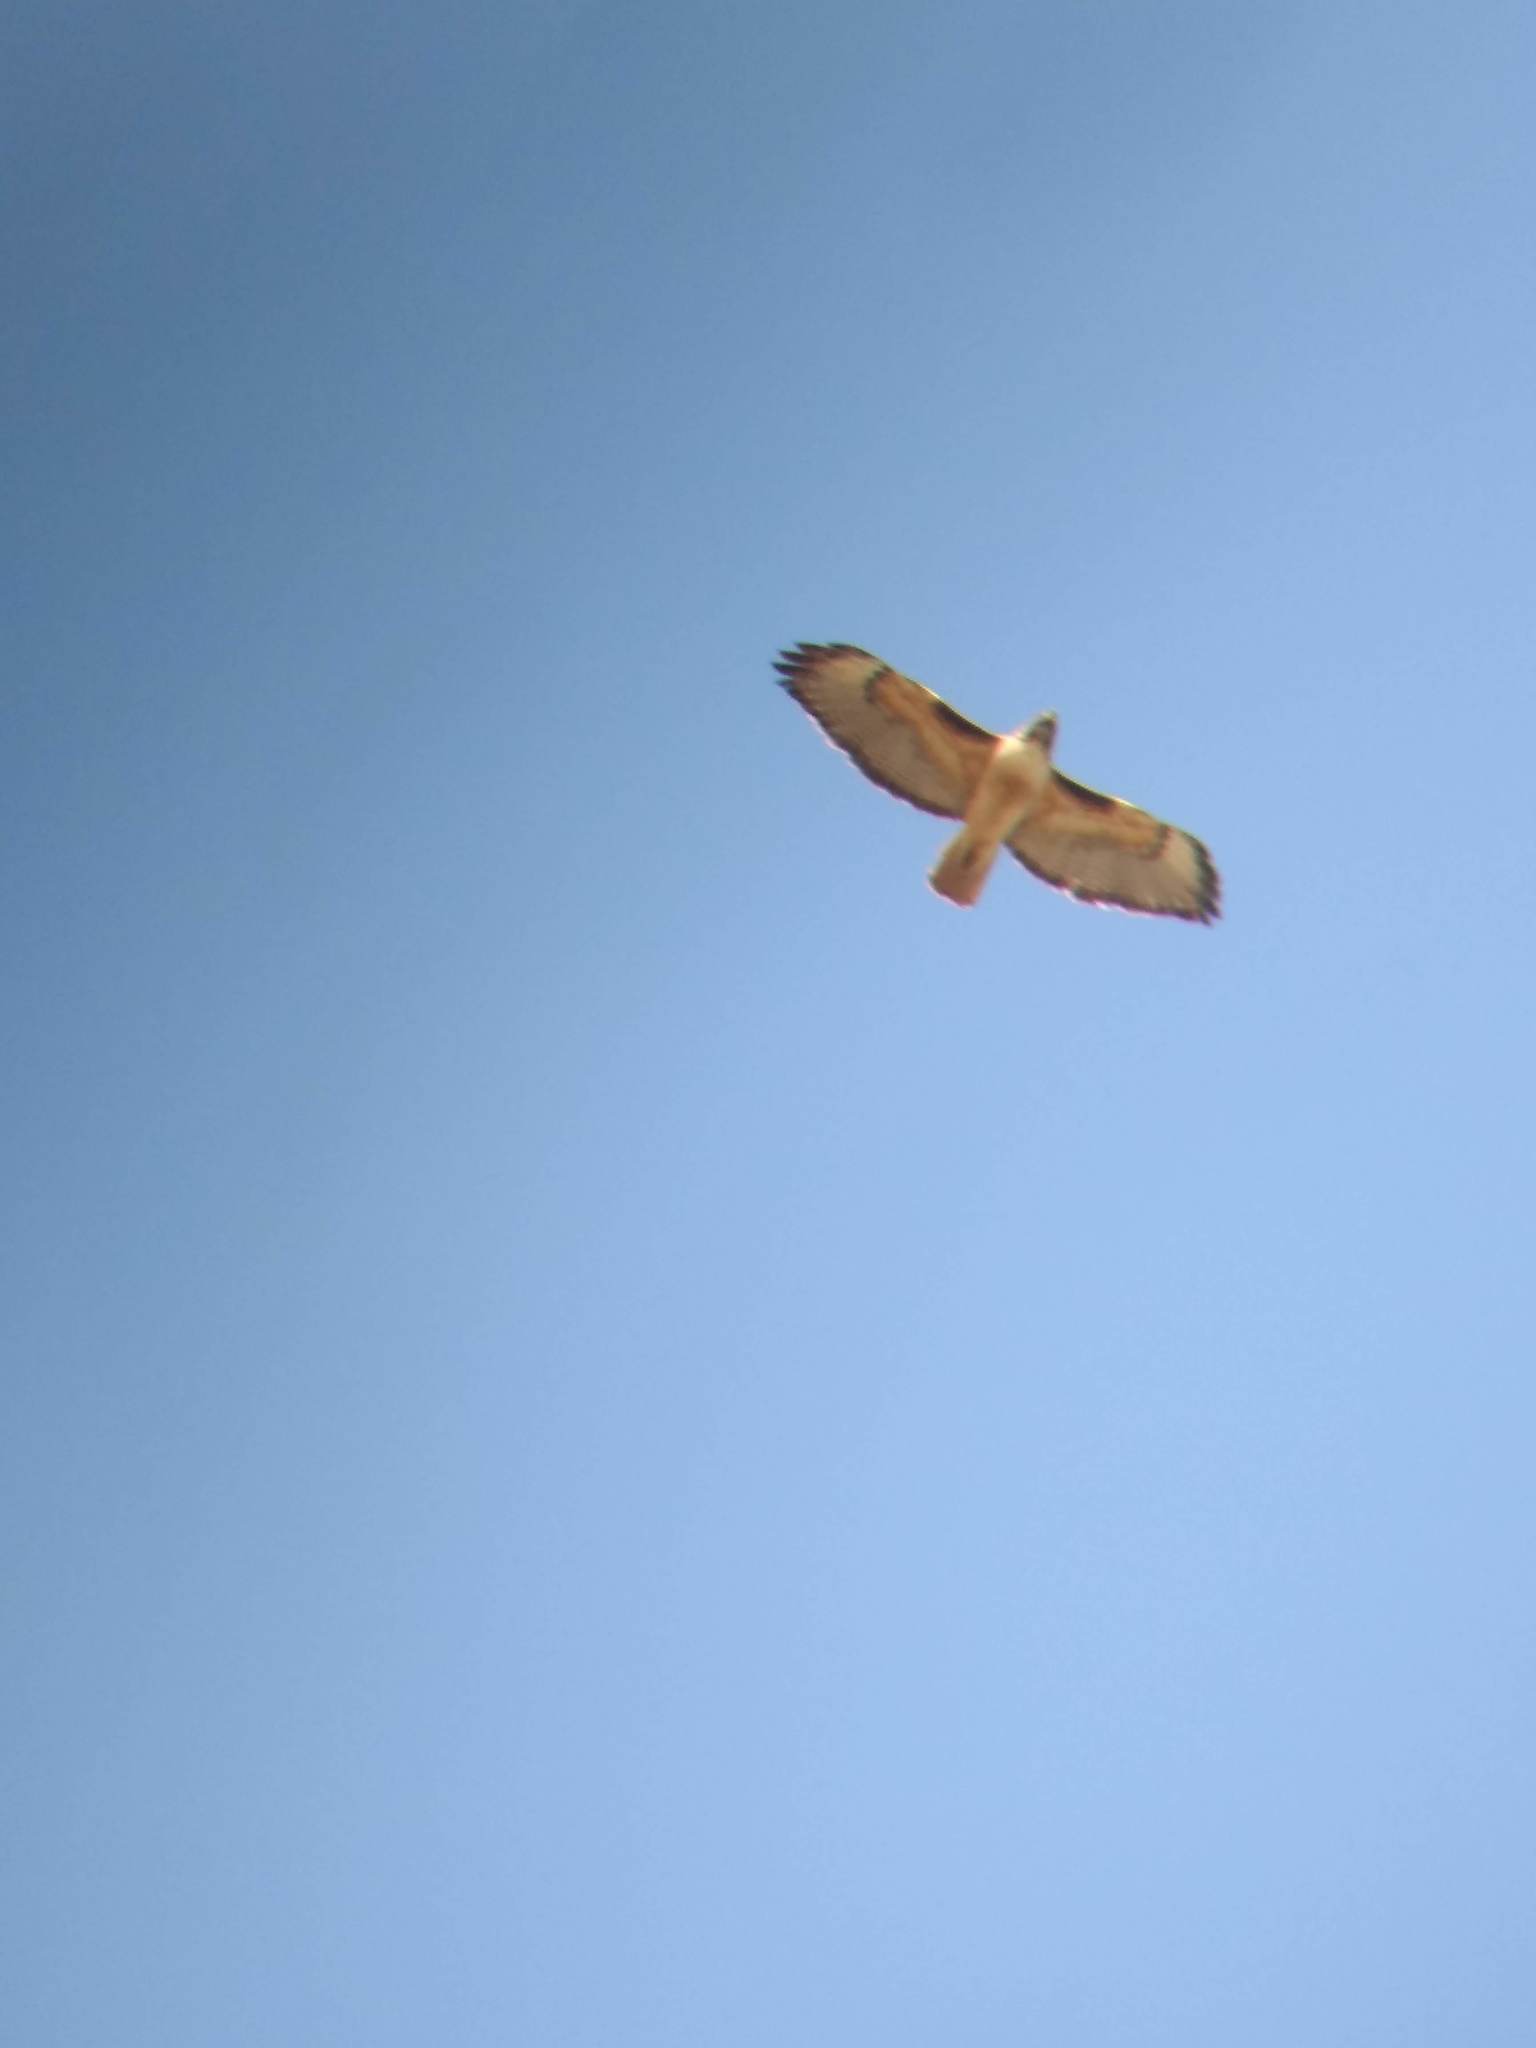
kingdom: Animalia
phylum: Chordata
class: Aves
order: Accipitriformes
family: Accipitridae
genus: Buteo
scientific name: Buteo jamaicensis
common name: Red-tailed hawk
